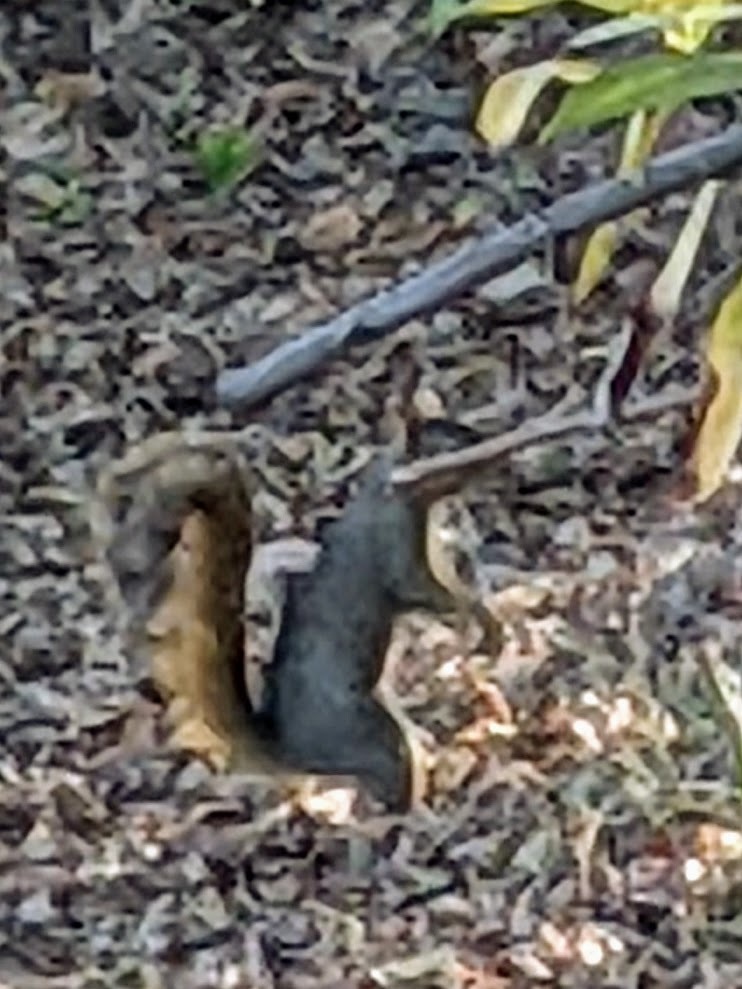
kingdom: Animalia
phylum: Chordata
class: Mammalia
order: Rodentia
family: Sciuridae
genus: Sciurus
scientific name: Sciurus niger
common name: Fox squirrel
